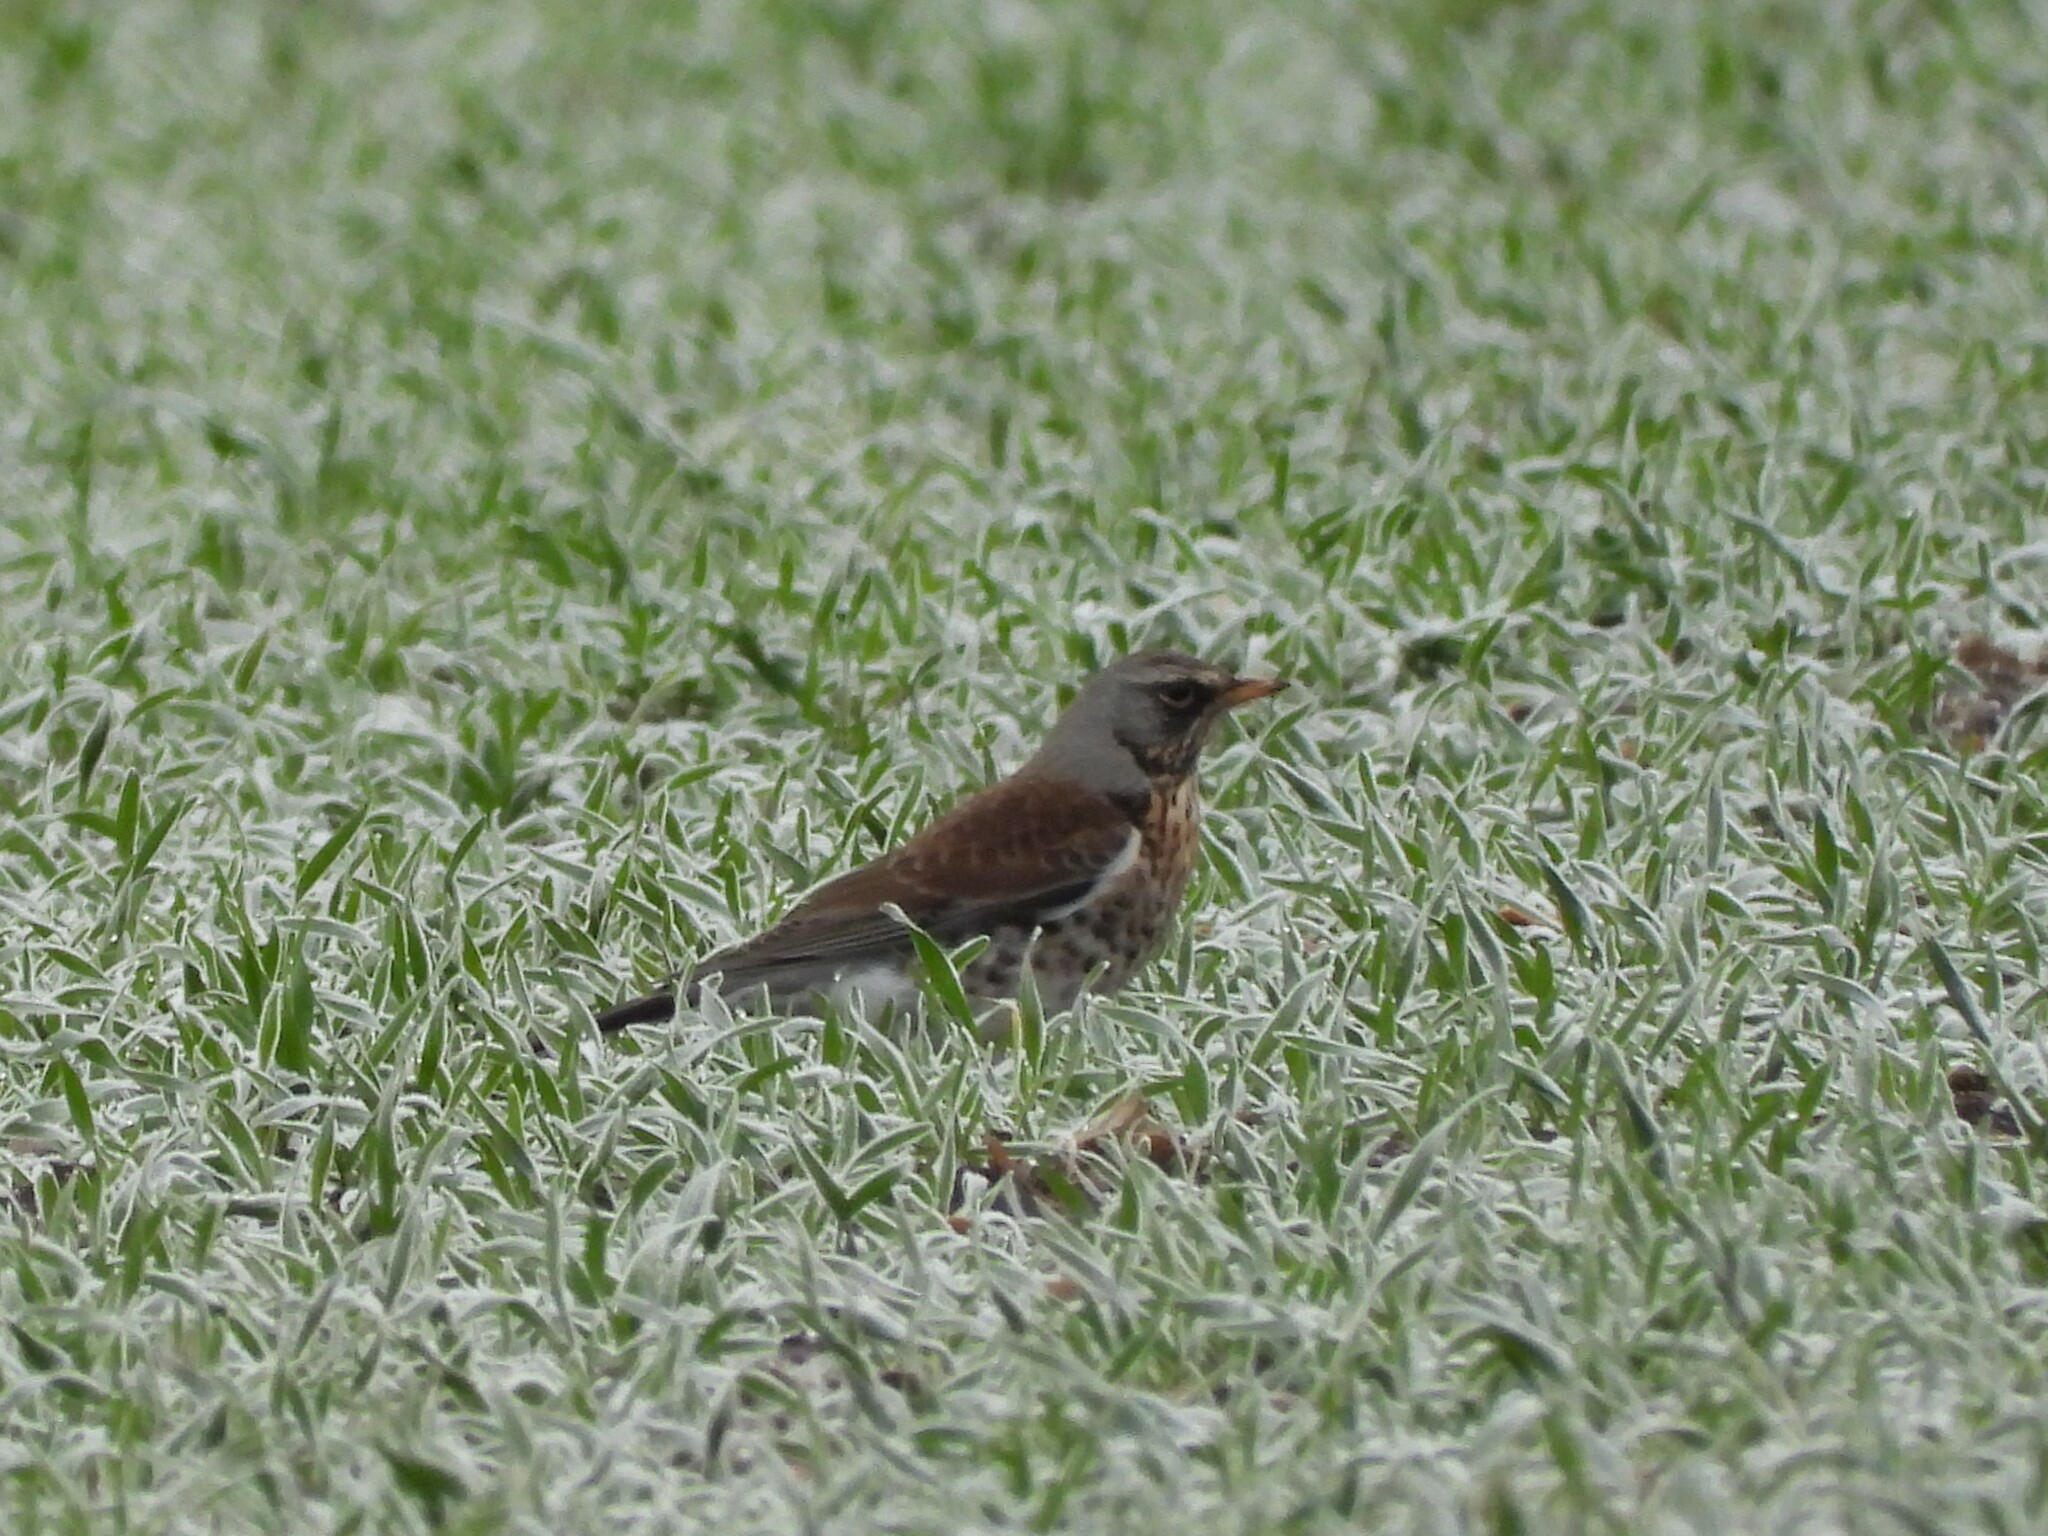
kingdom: Animalia
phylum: Chordata
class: Aves
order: Passeriformes
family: Turdidae
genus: Turdus
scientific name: Turdus pilaris
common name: Fieldfare
